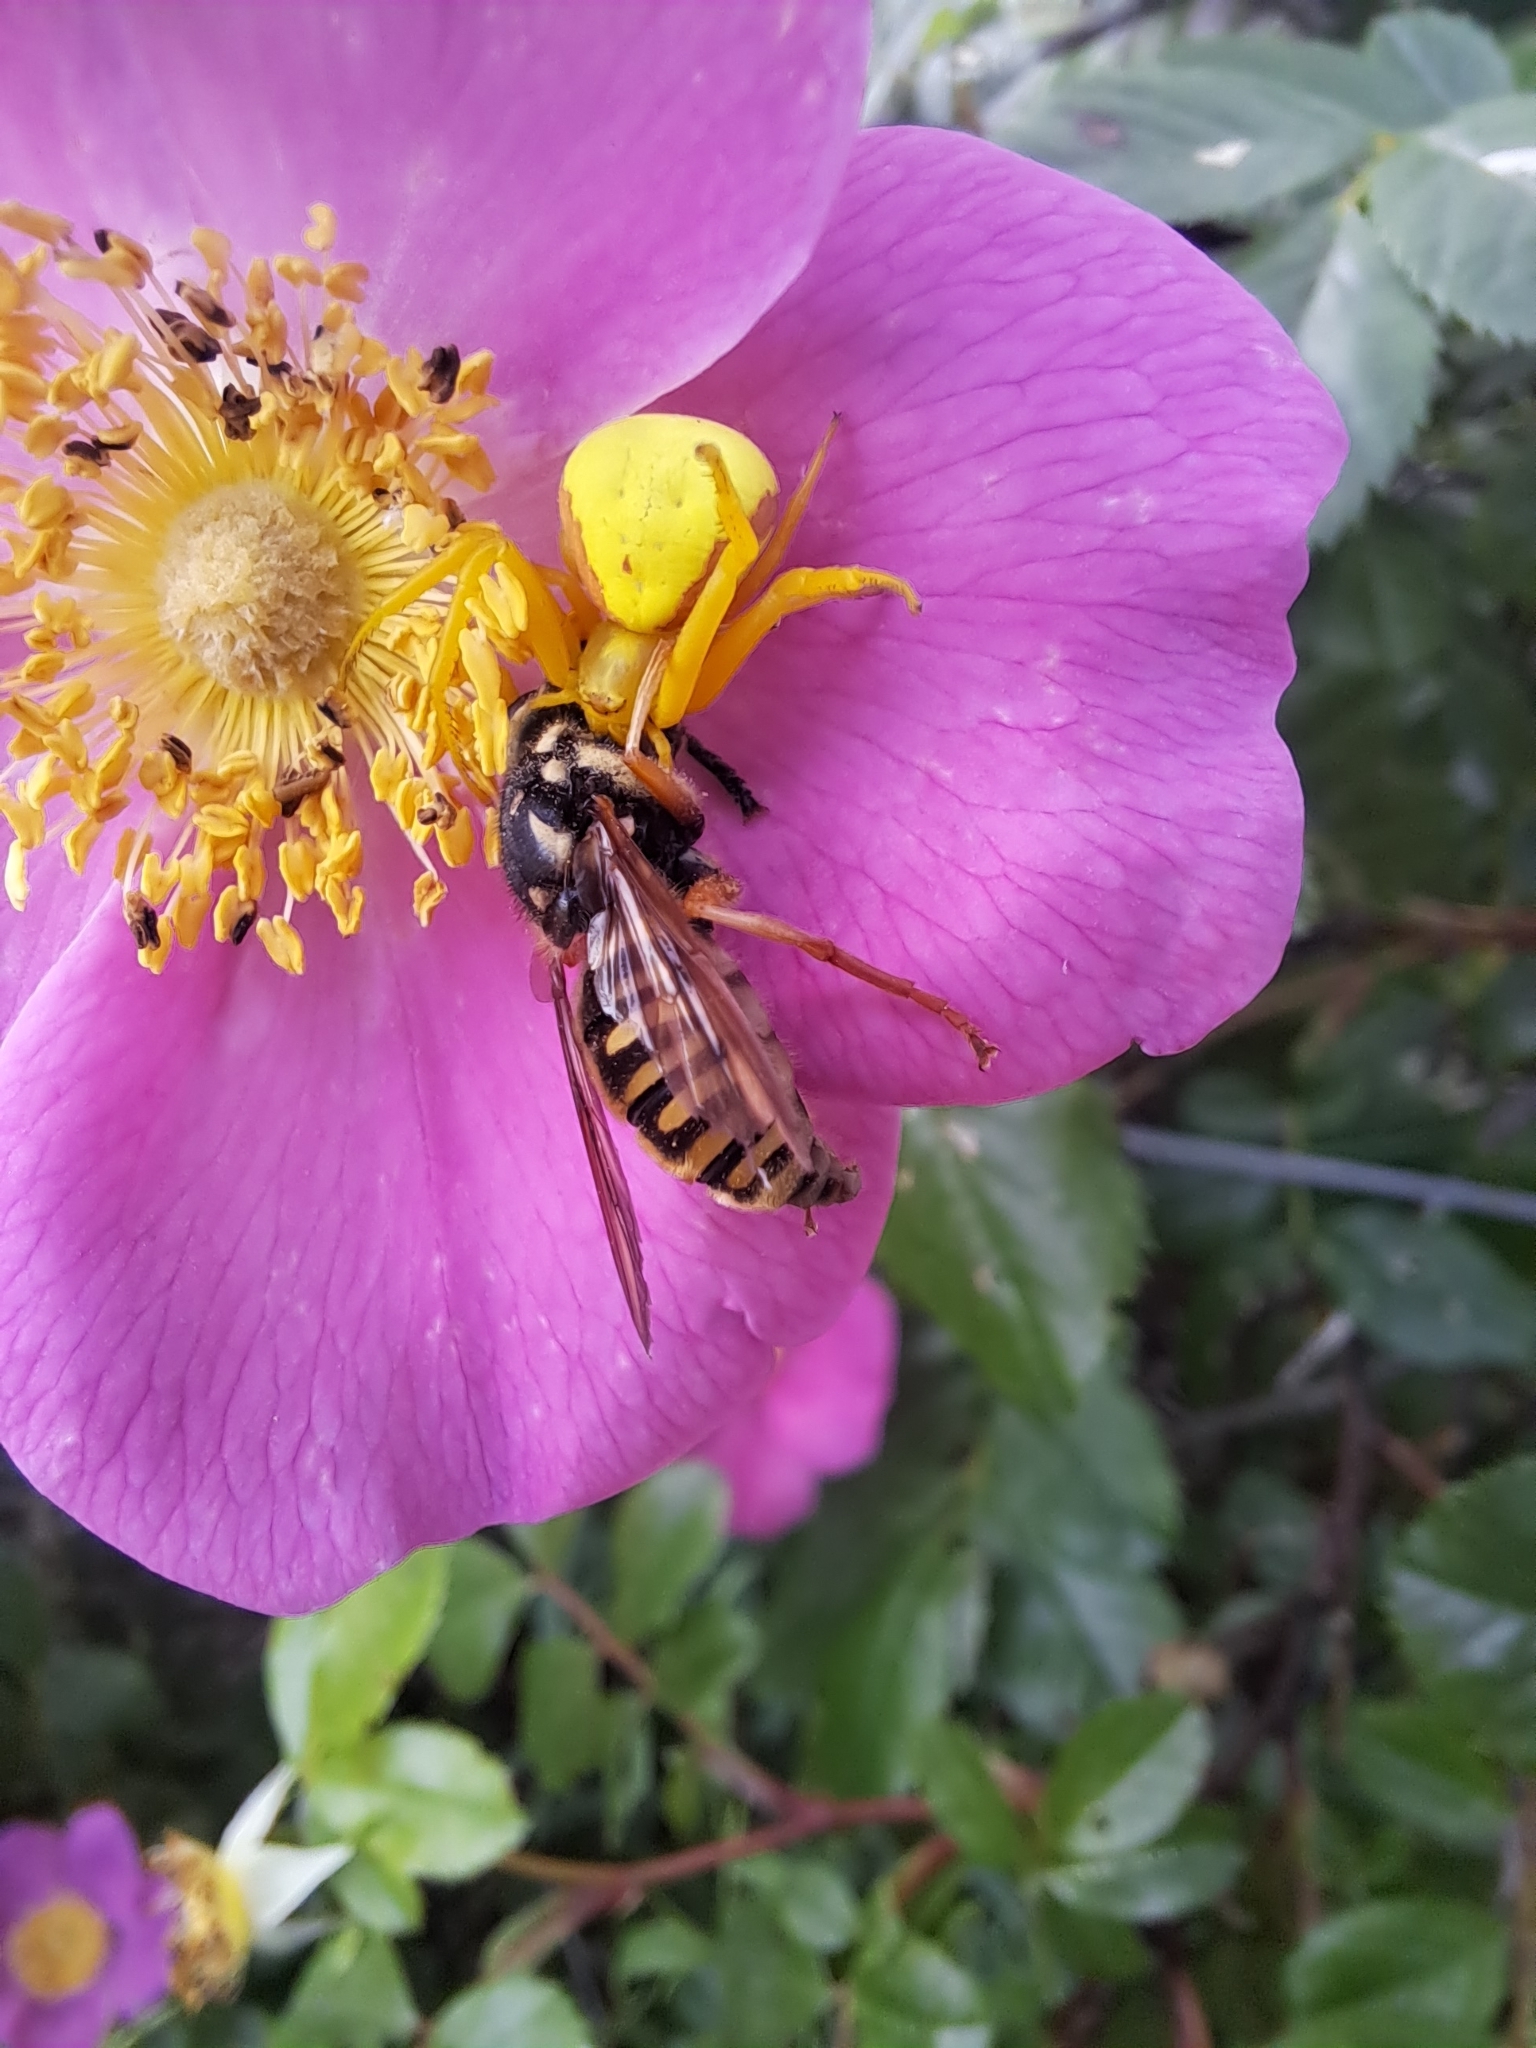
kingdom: Animalia
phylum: Arthropoda
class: Arachnida
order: Araneae
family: Thomisidae
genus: Misumena
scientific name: Misumena vatia
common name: Goldenrod crab spider
